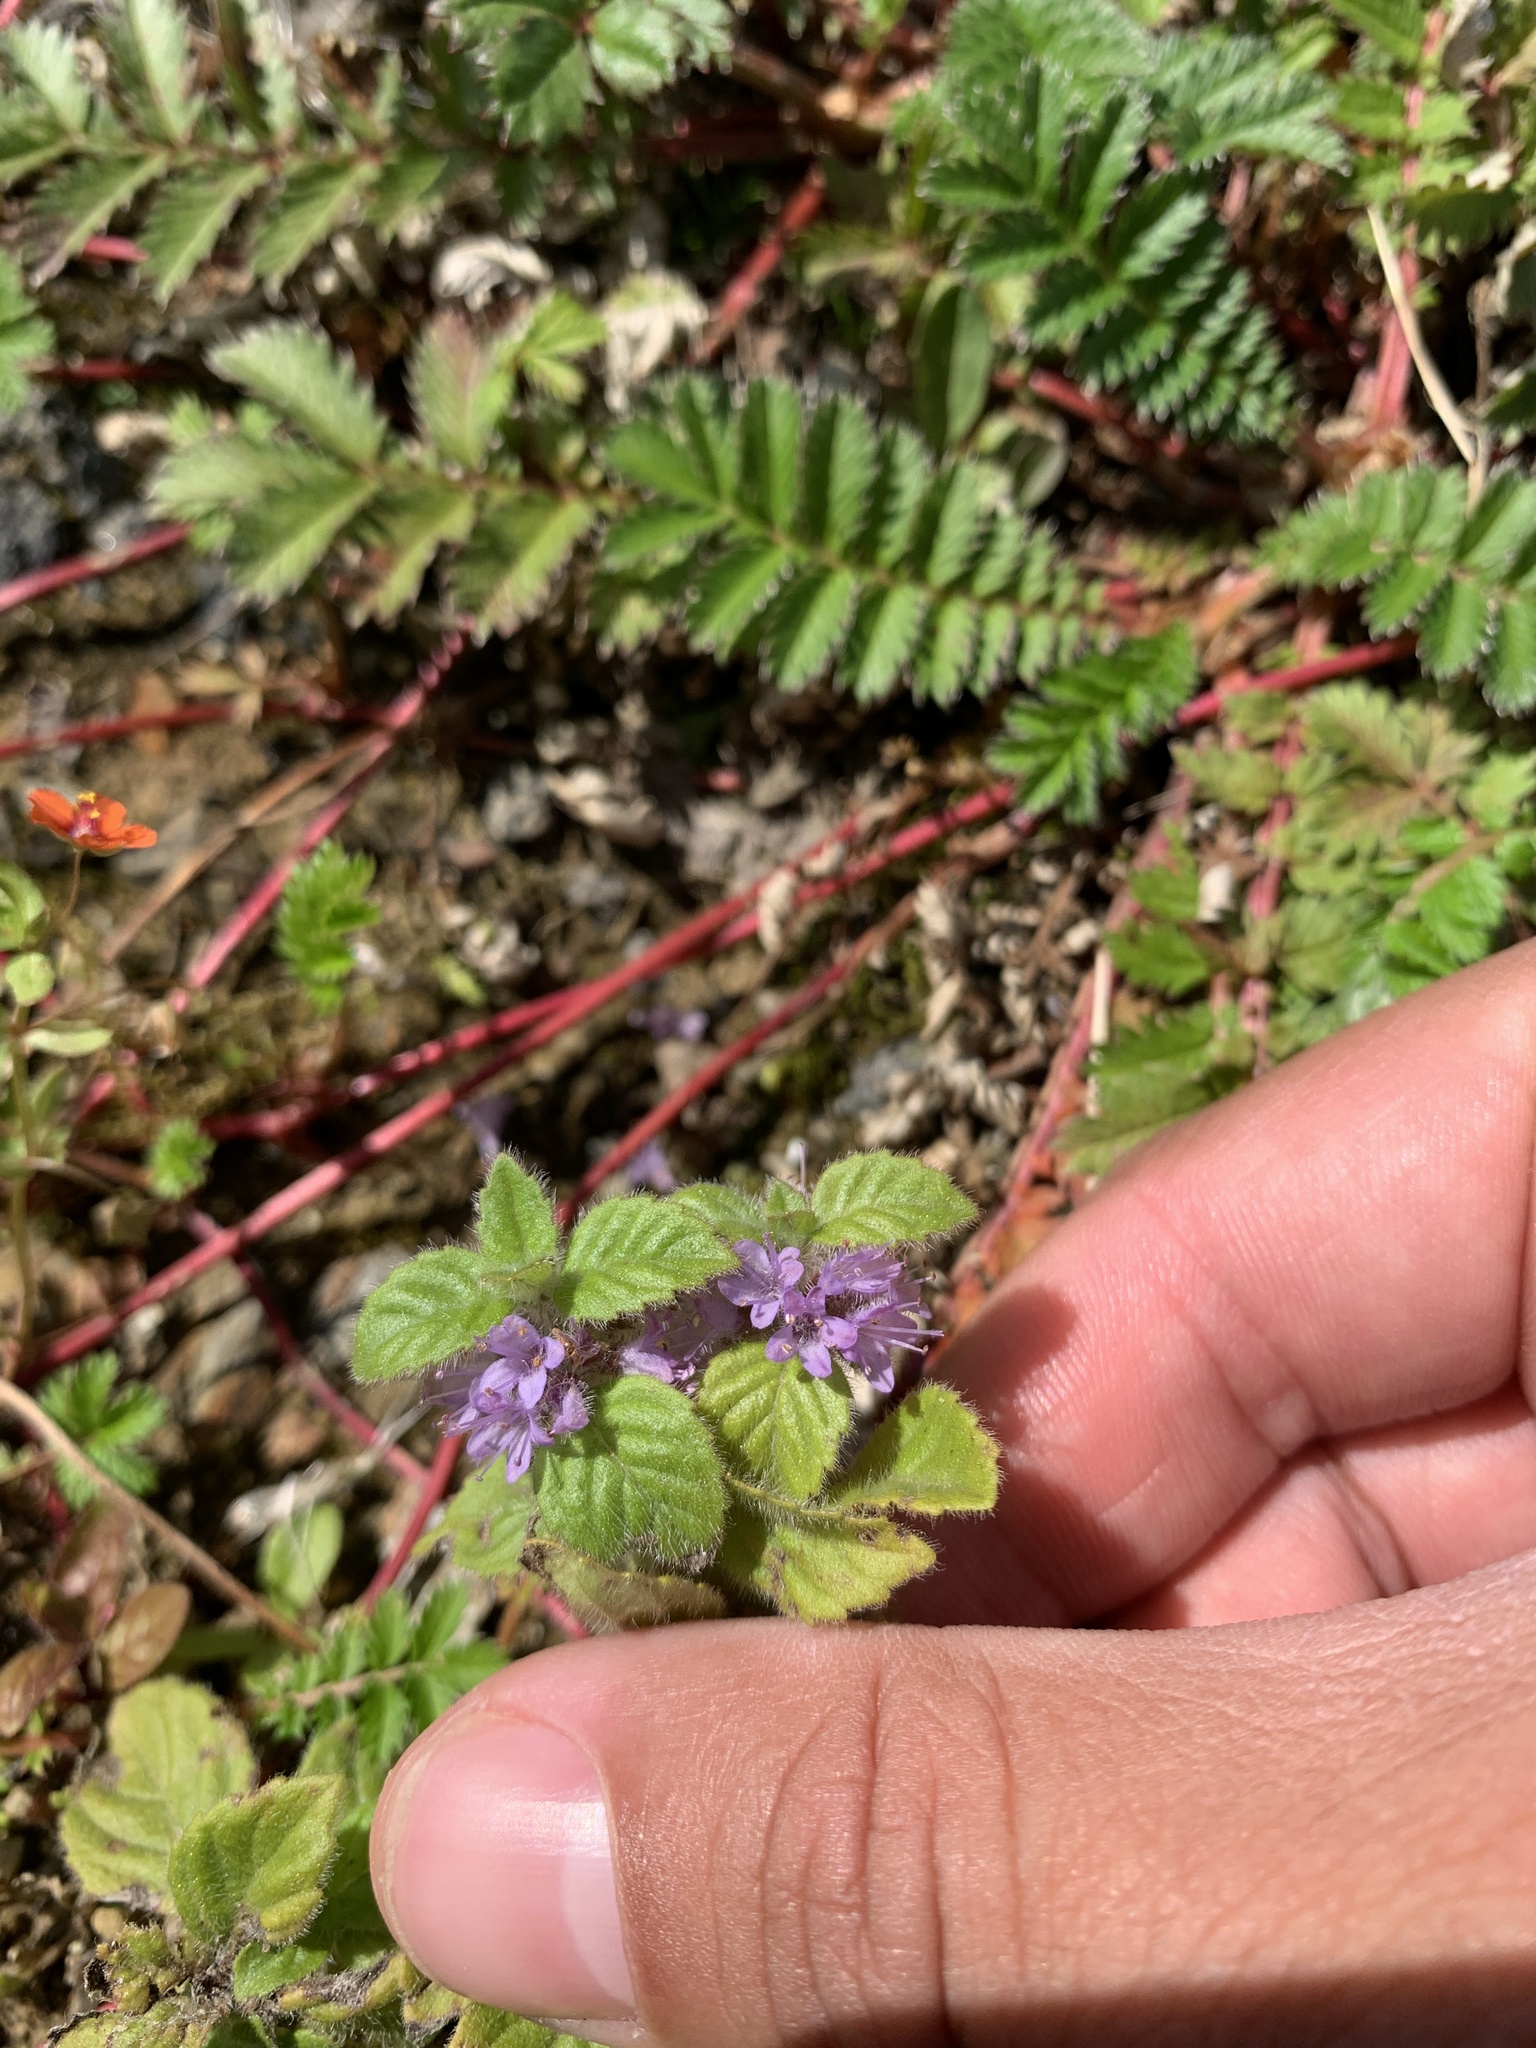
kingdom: Plantae
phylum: Tracheophyta
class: Magnoliopsida
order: Geraniales
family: Geraniaceae
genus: Erodium
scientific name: Erodium moschatum
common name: Musk stork's-bill
